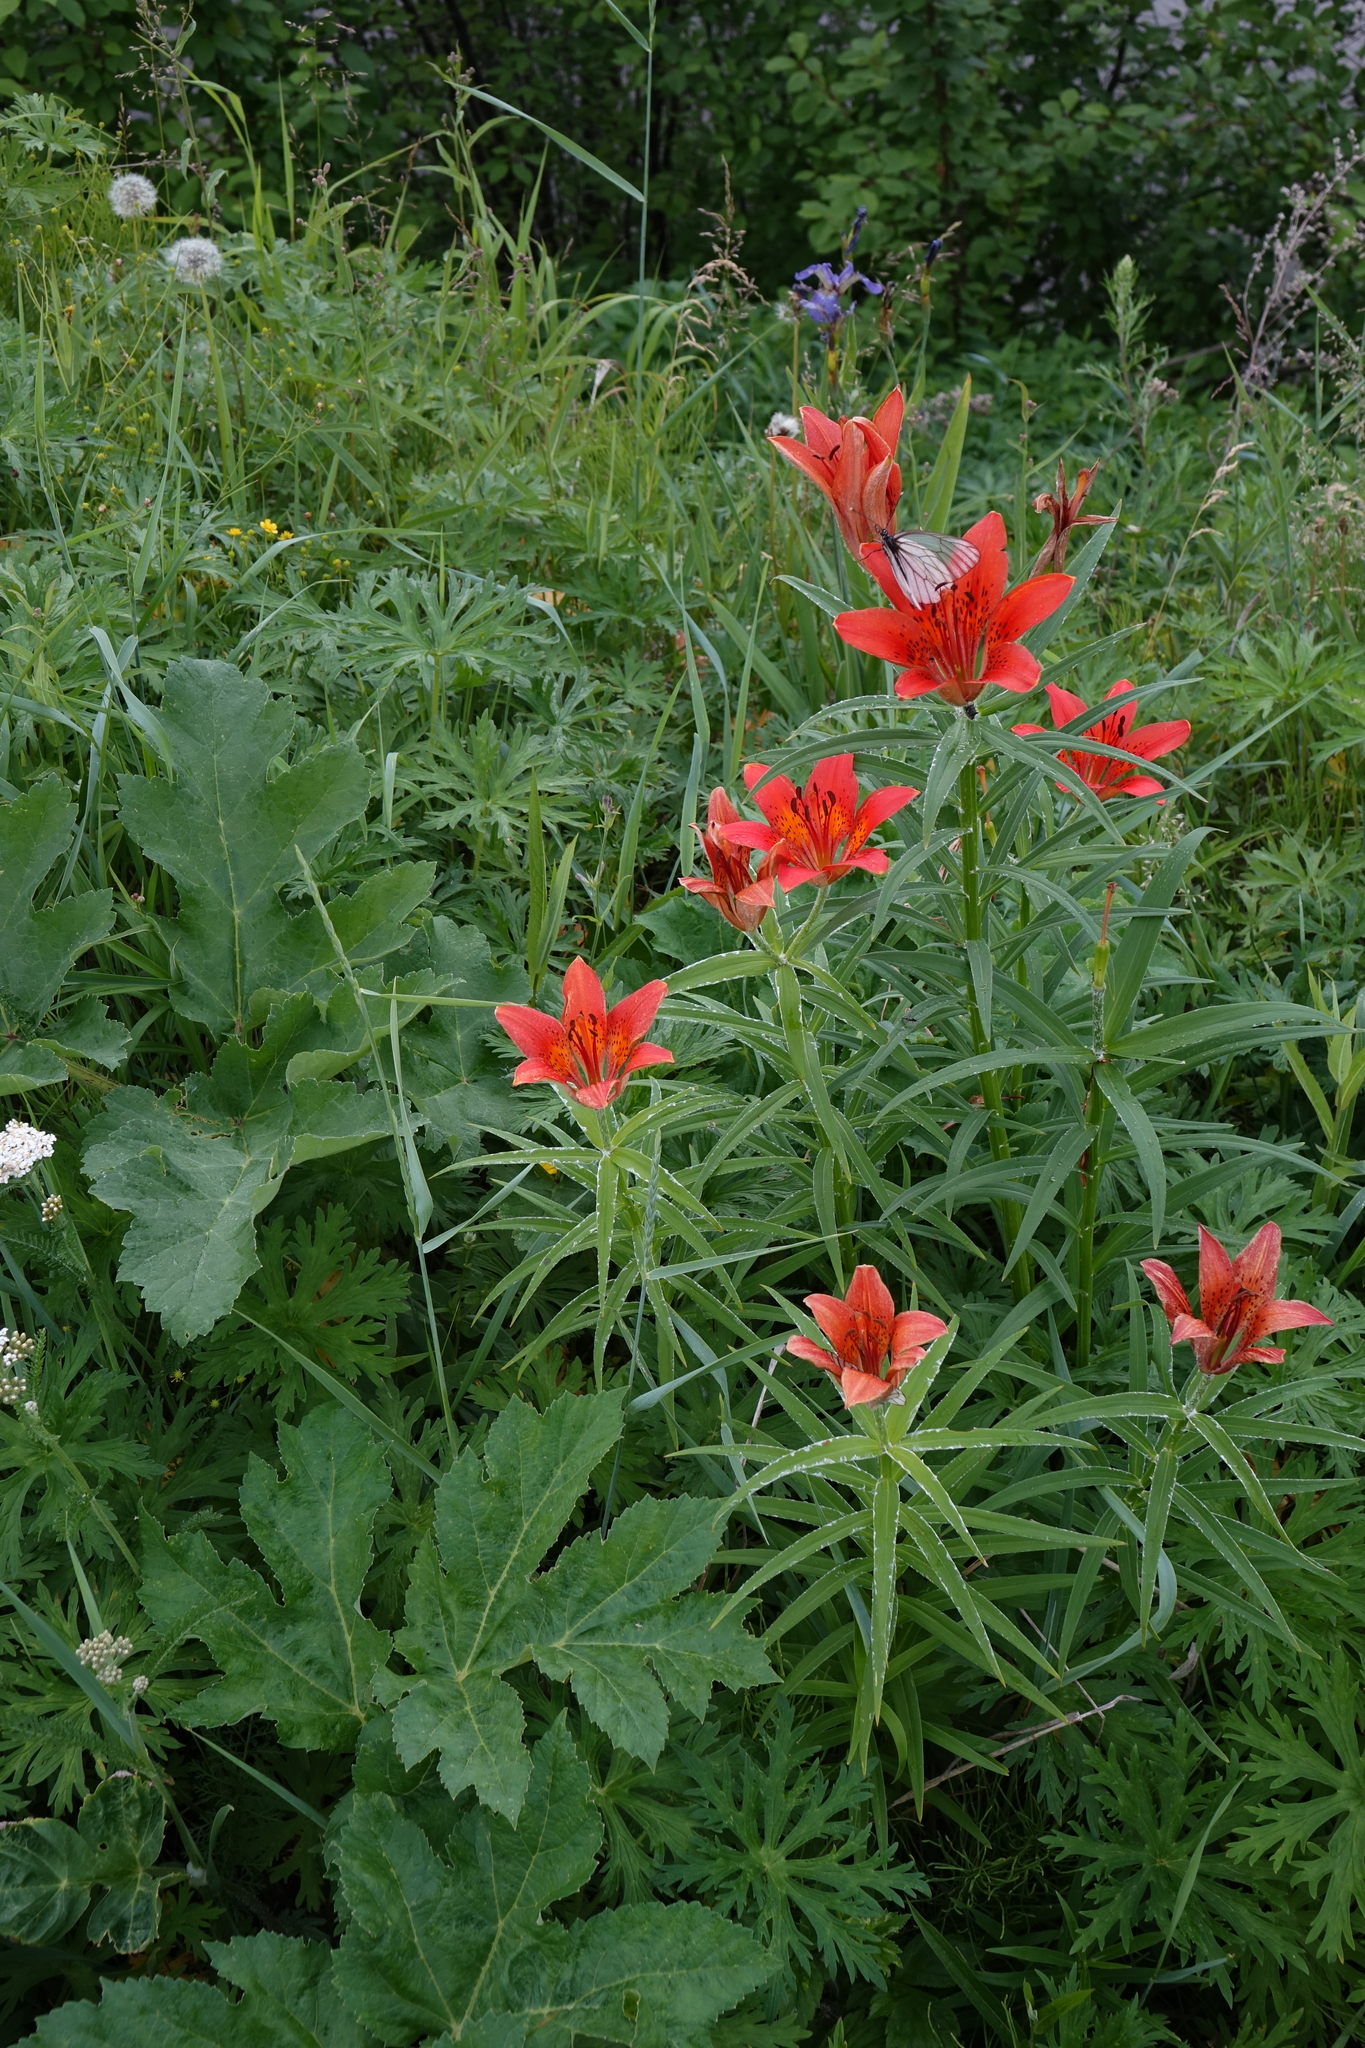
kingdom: Plantae
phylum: Tracheophyta
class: Liliopsida
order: Liliales
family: Liliaceae
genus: Lilium
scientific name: Lilium pensylvanicum
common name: Candlestick lily
